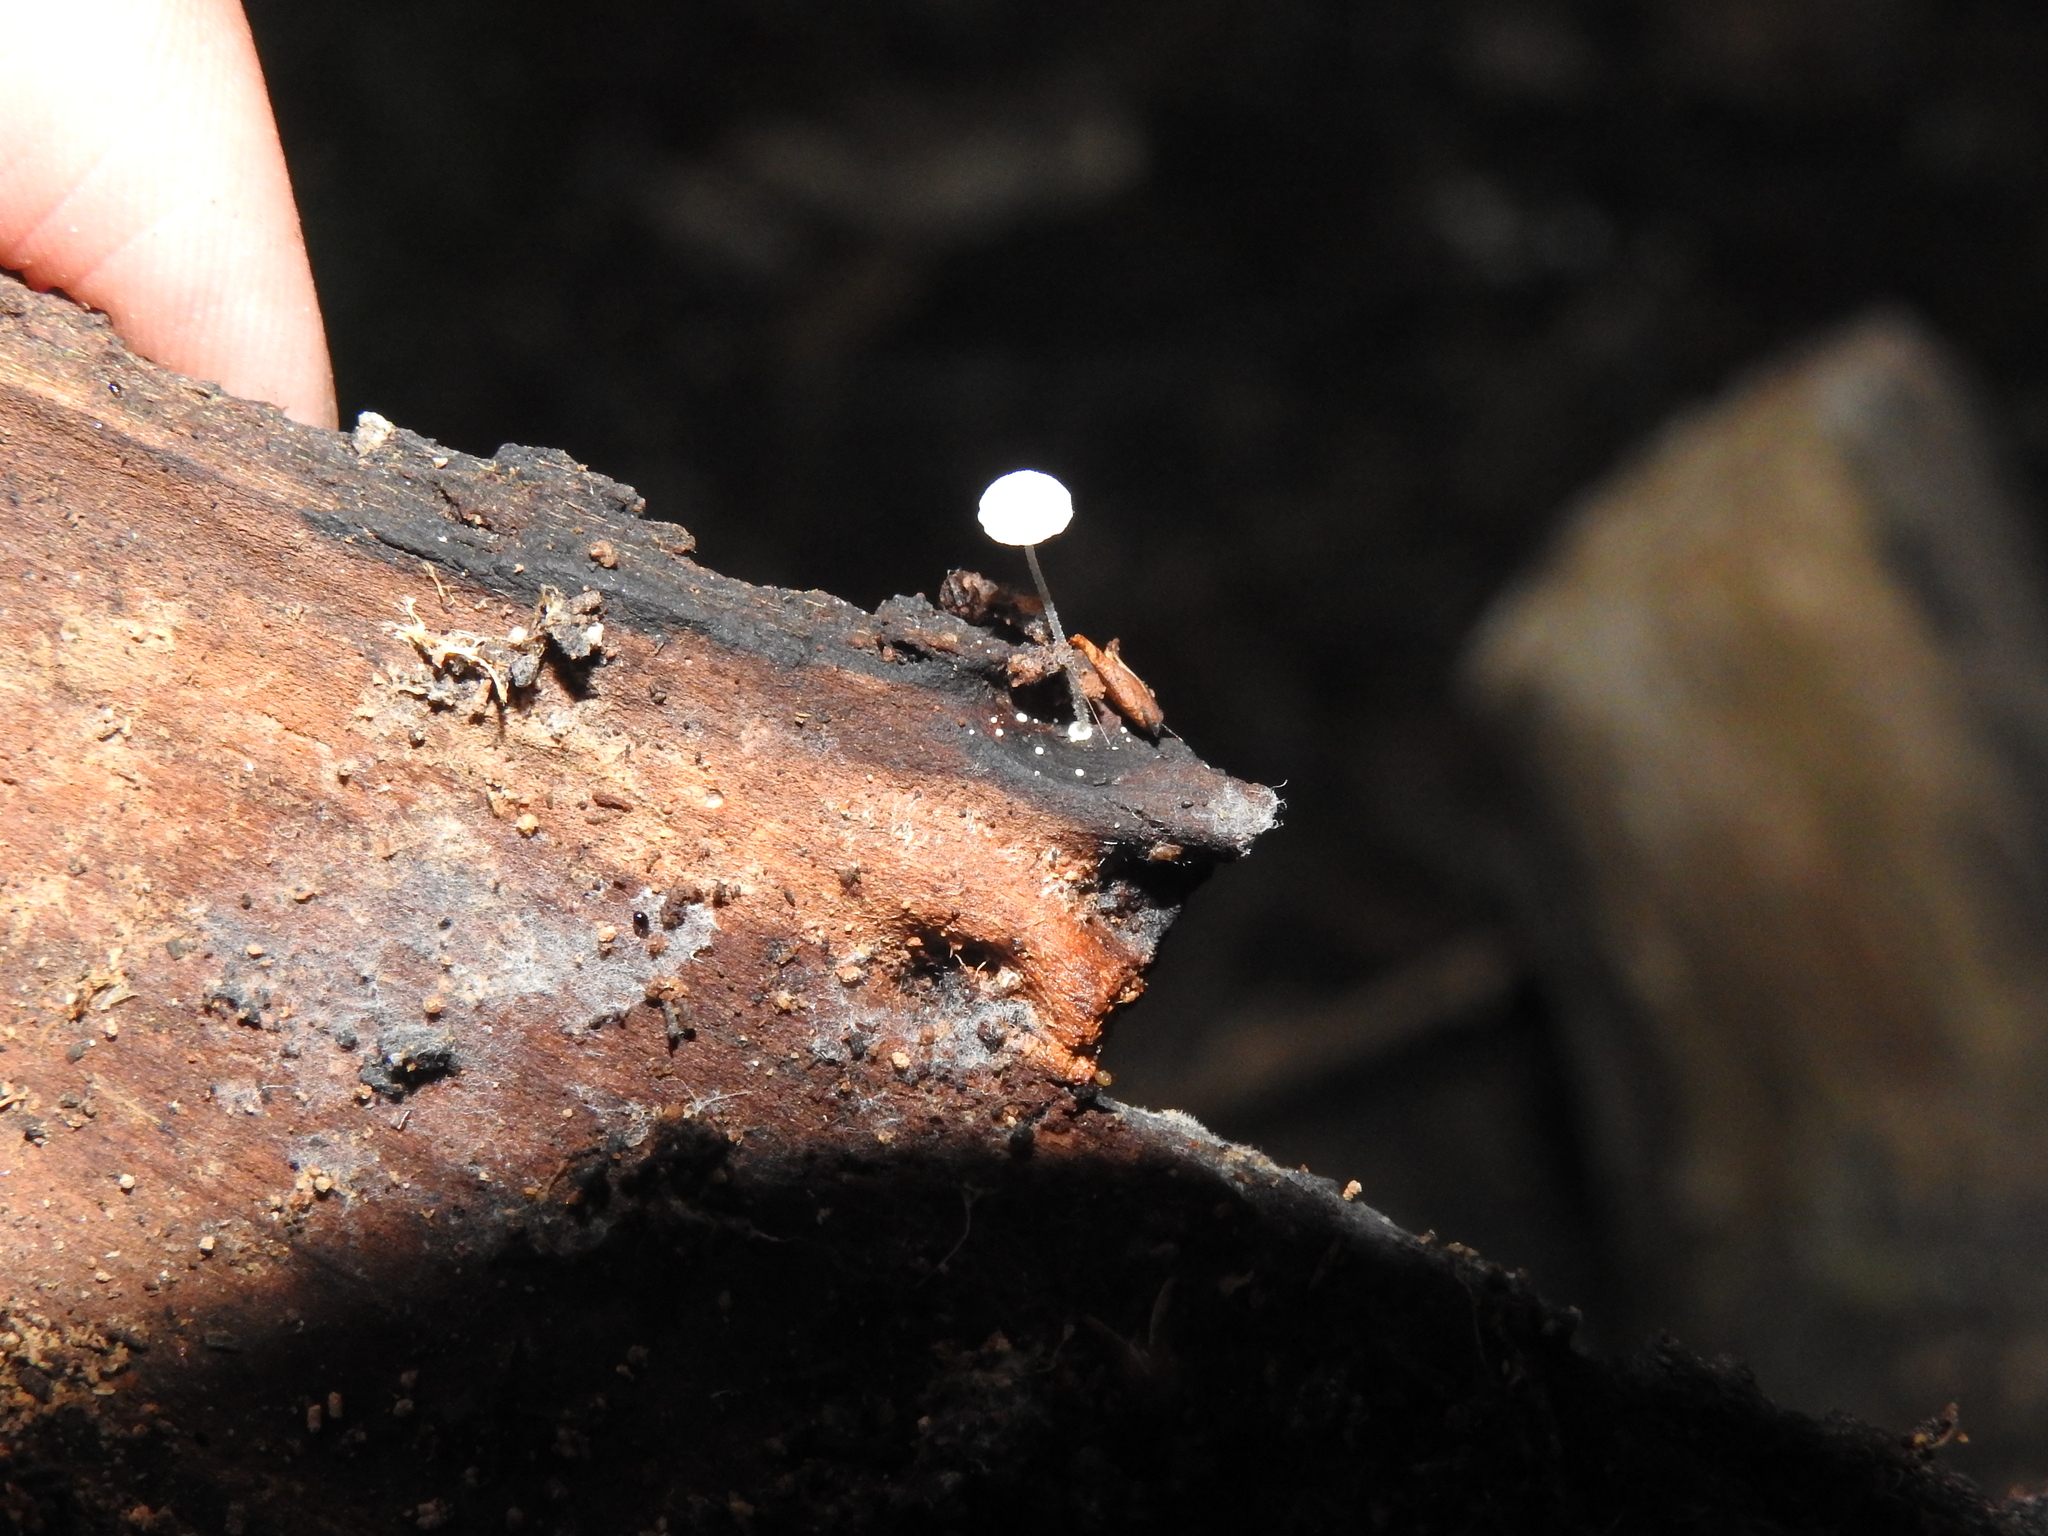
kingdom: Fungi
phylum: Basidiomycota
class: Agaricomycetes
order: Agaricales
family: Mycenaceae
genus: Mycena
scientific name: Mycena tenerrima
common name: Frosty bonnet
